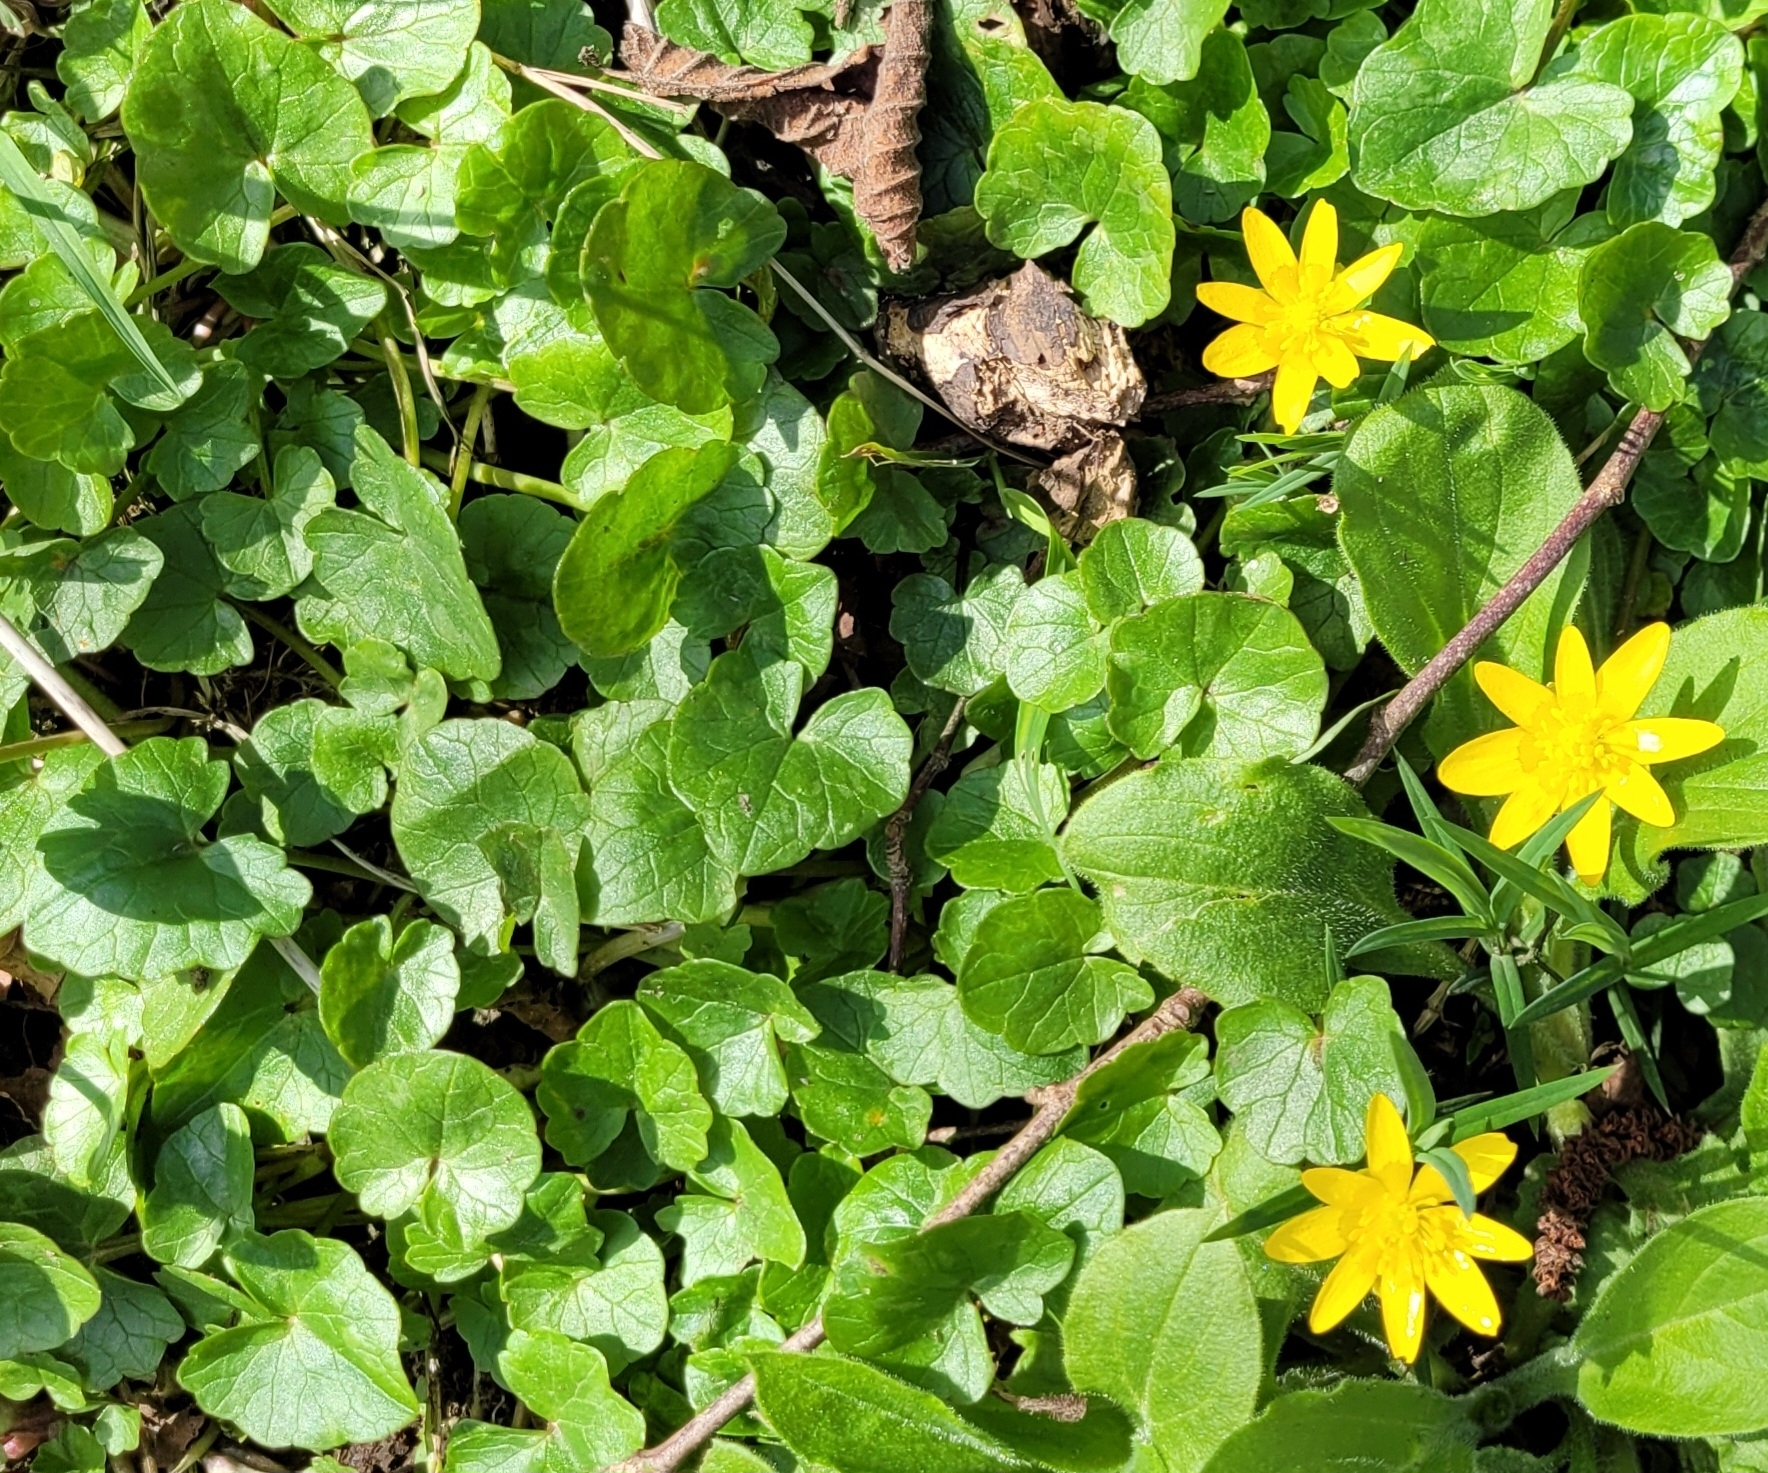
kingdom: Plantae
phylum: Tracheophyta
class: Magnoliopsida
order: Ranunculales
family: Ranunculaceae
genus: Ficaria
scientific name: Ficaria verna
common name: Lesser celandine
